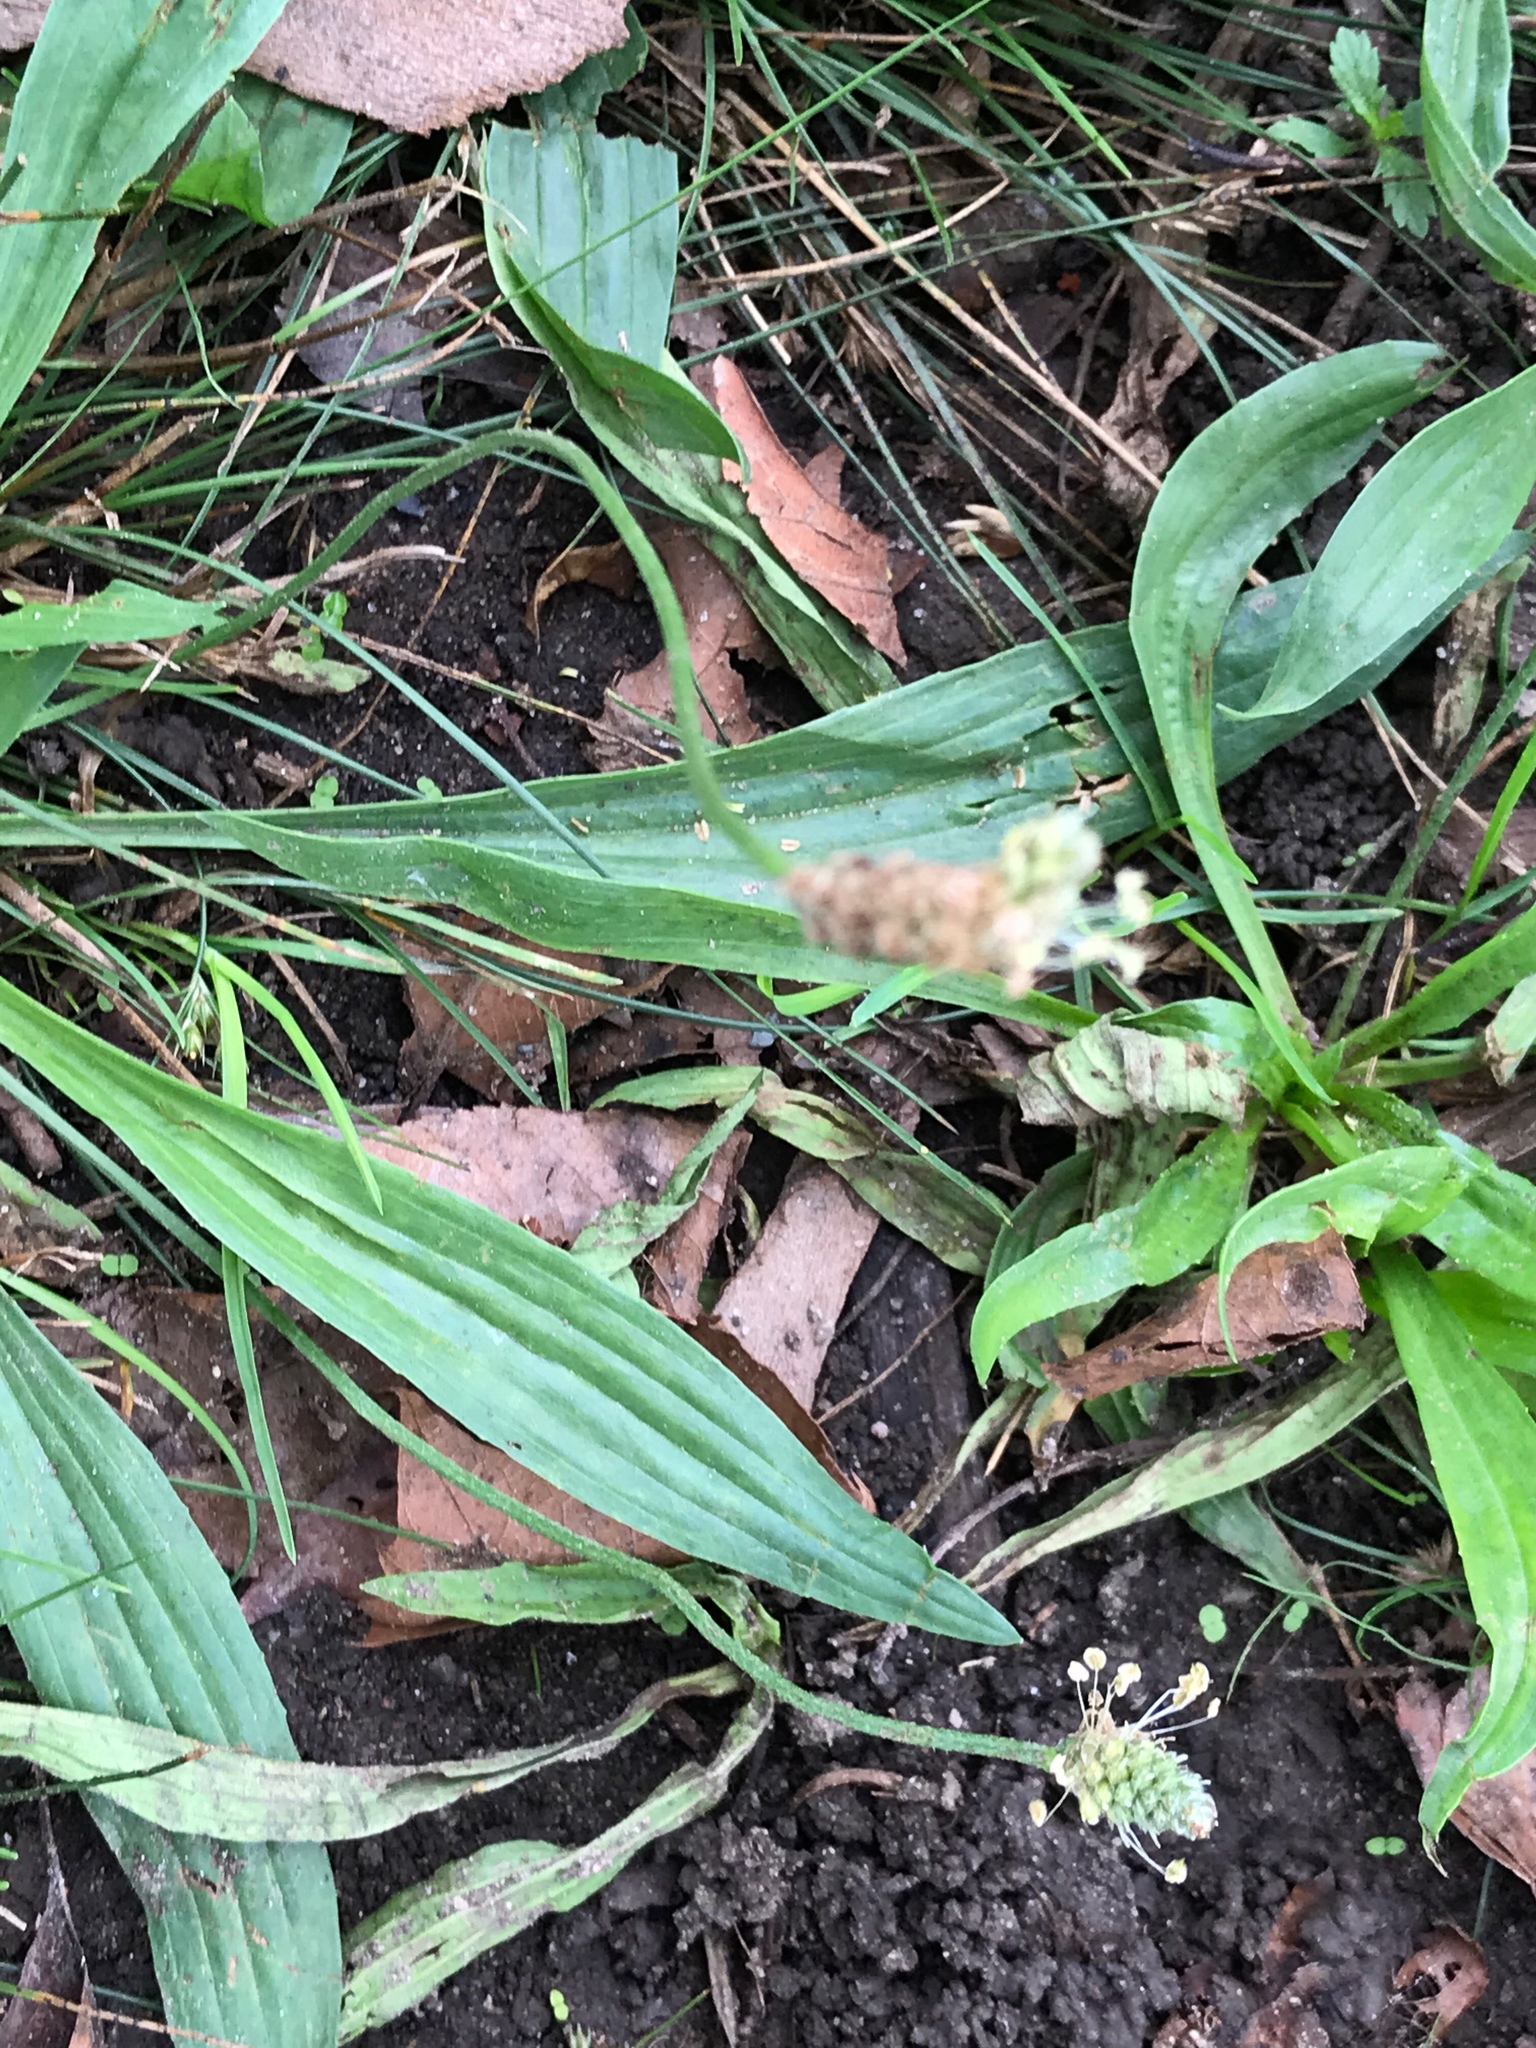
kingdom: Plantae
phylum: Tracheophyta
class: Magnoliopsida
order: Lamiales
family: Plantaginaceae
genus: Plantago
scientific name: Plantago lanceolata
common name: Ribwort plantain
